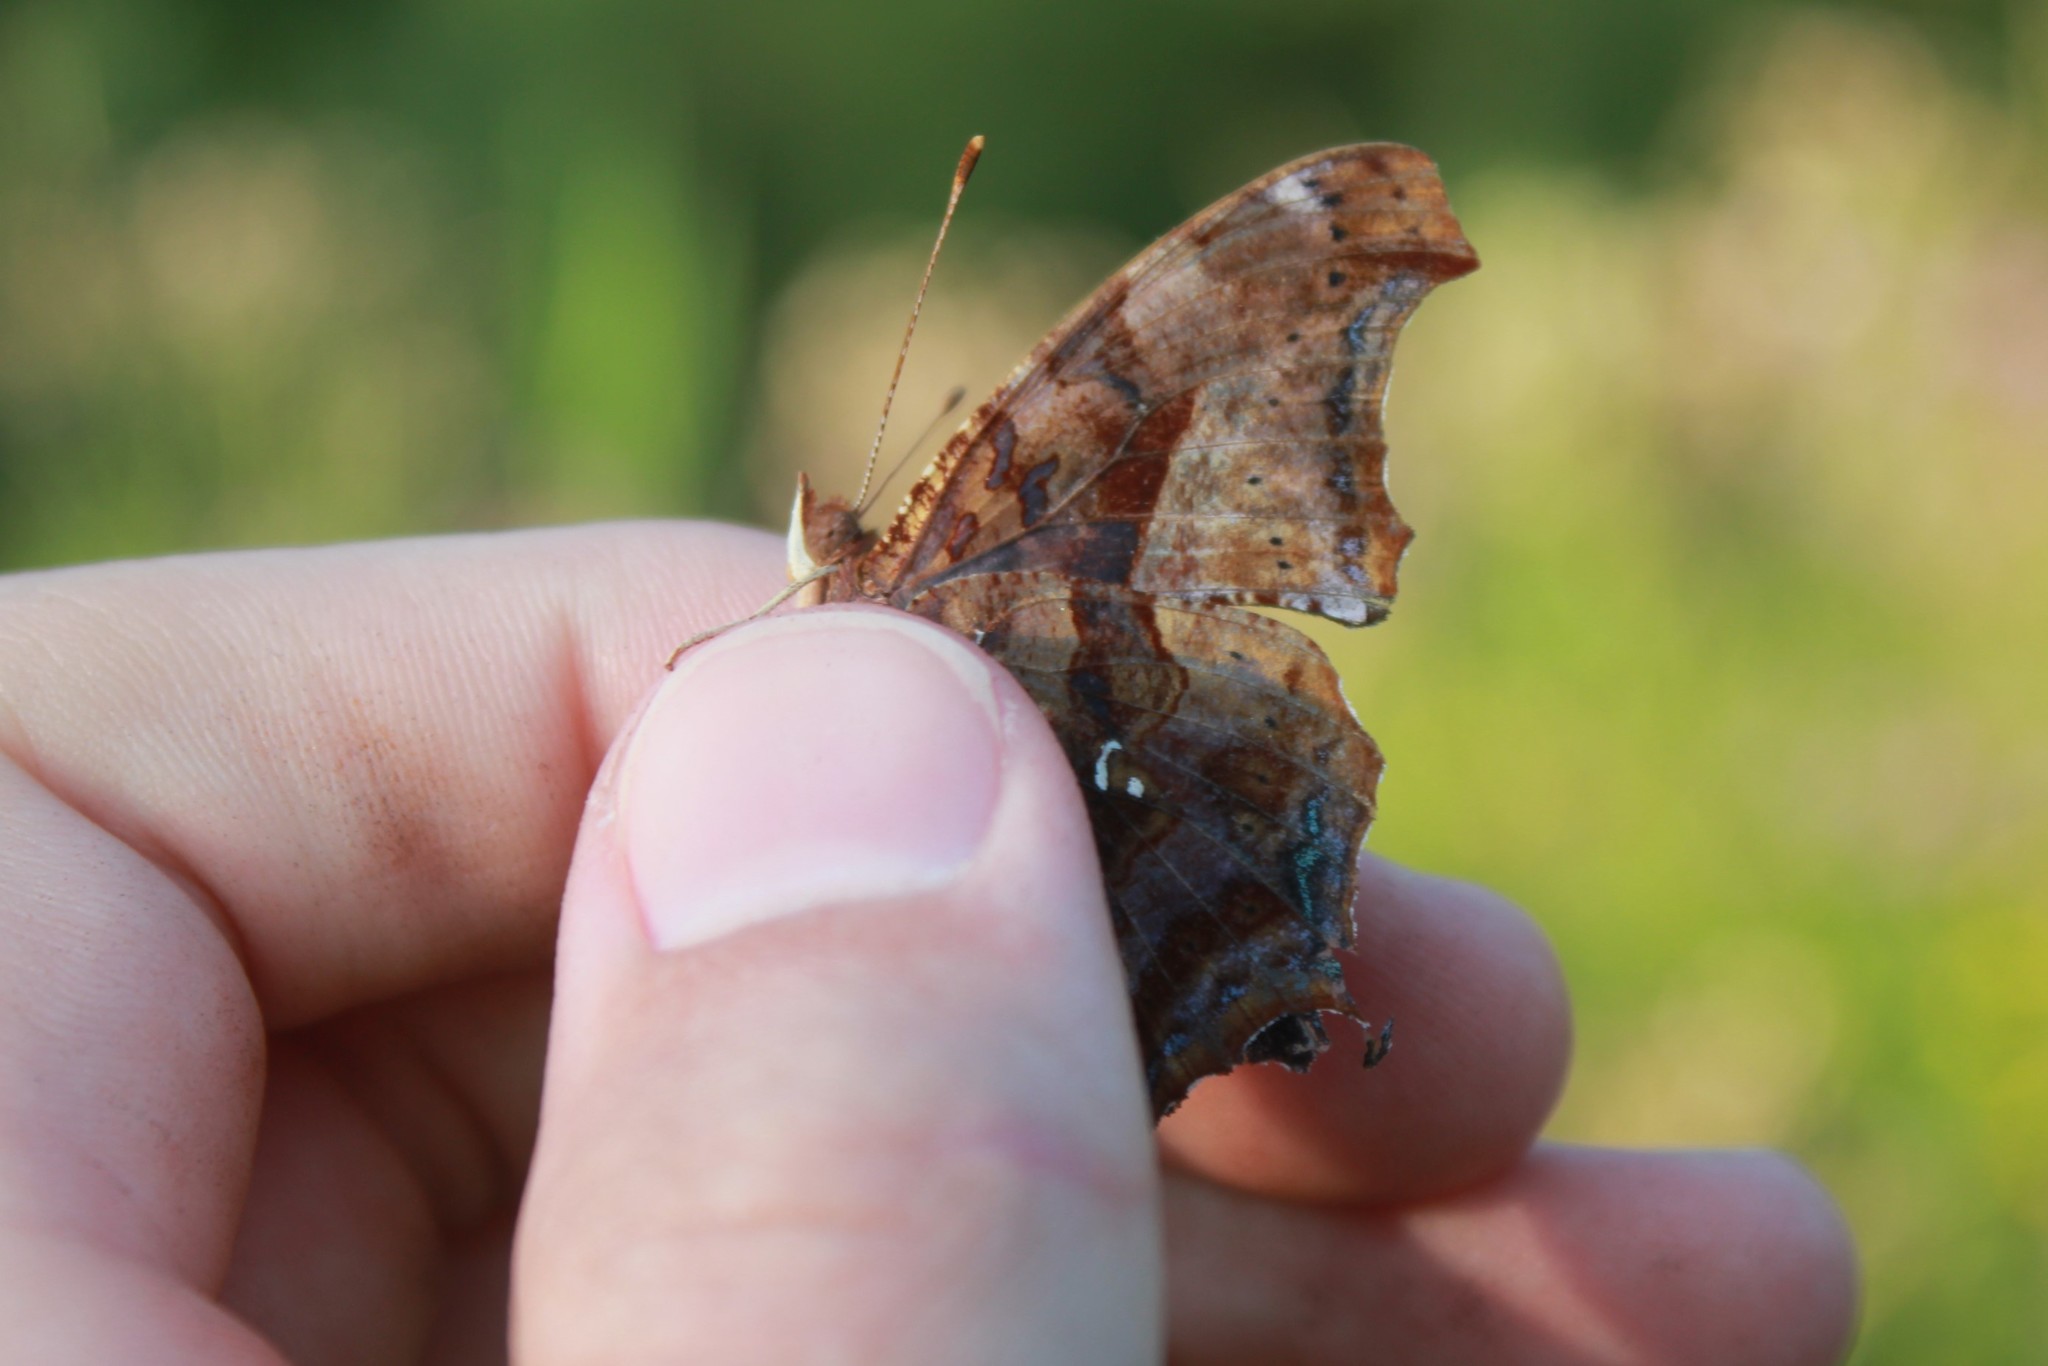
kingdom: Animalia
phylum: Arthropoda
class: Insecta
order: Lepidoptera
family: Nymphalidae
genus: Polygonia
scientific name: Polygonia interrogationis
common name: Question mark
